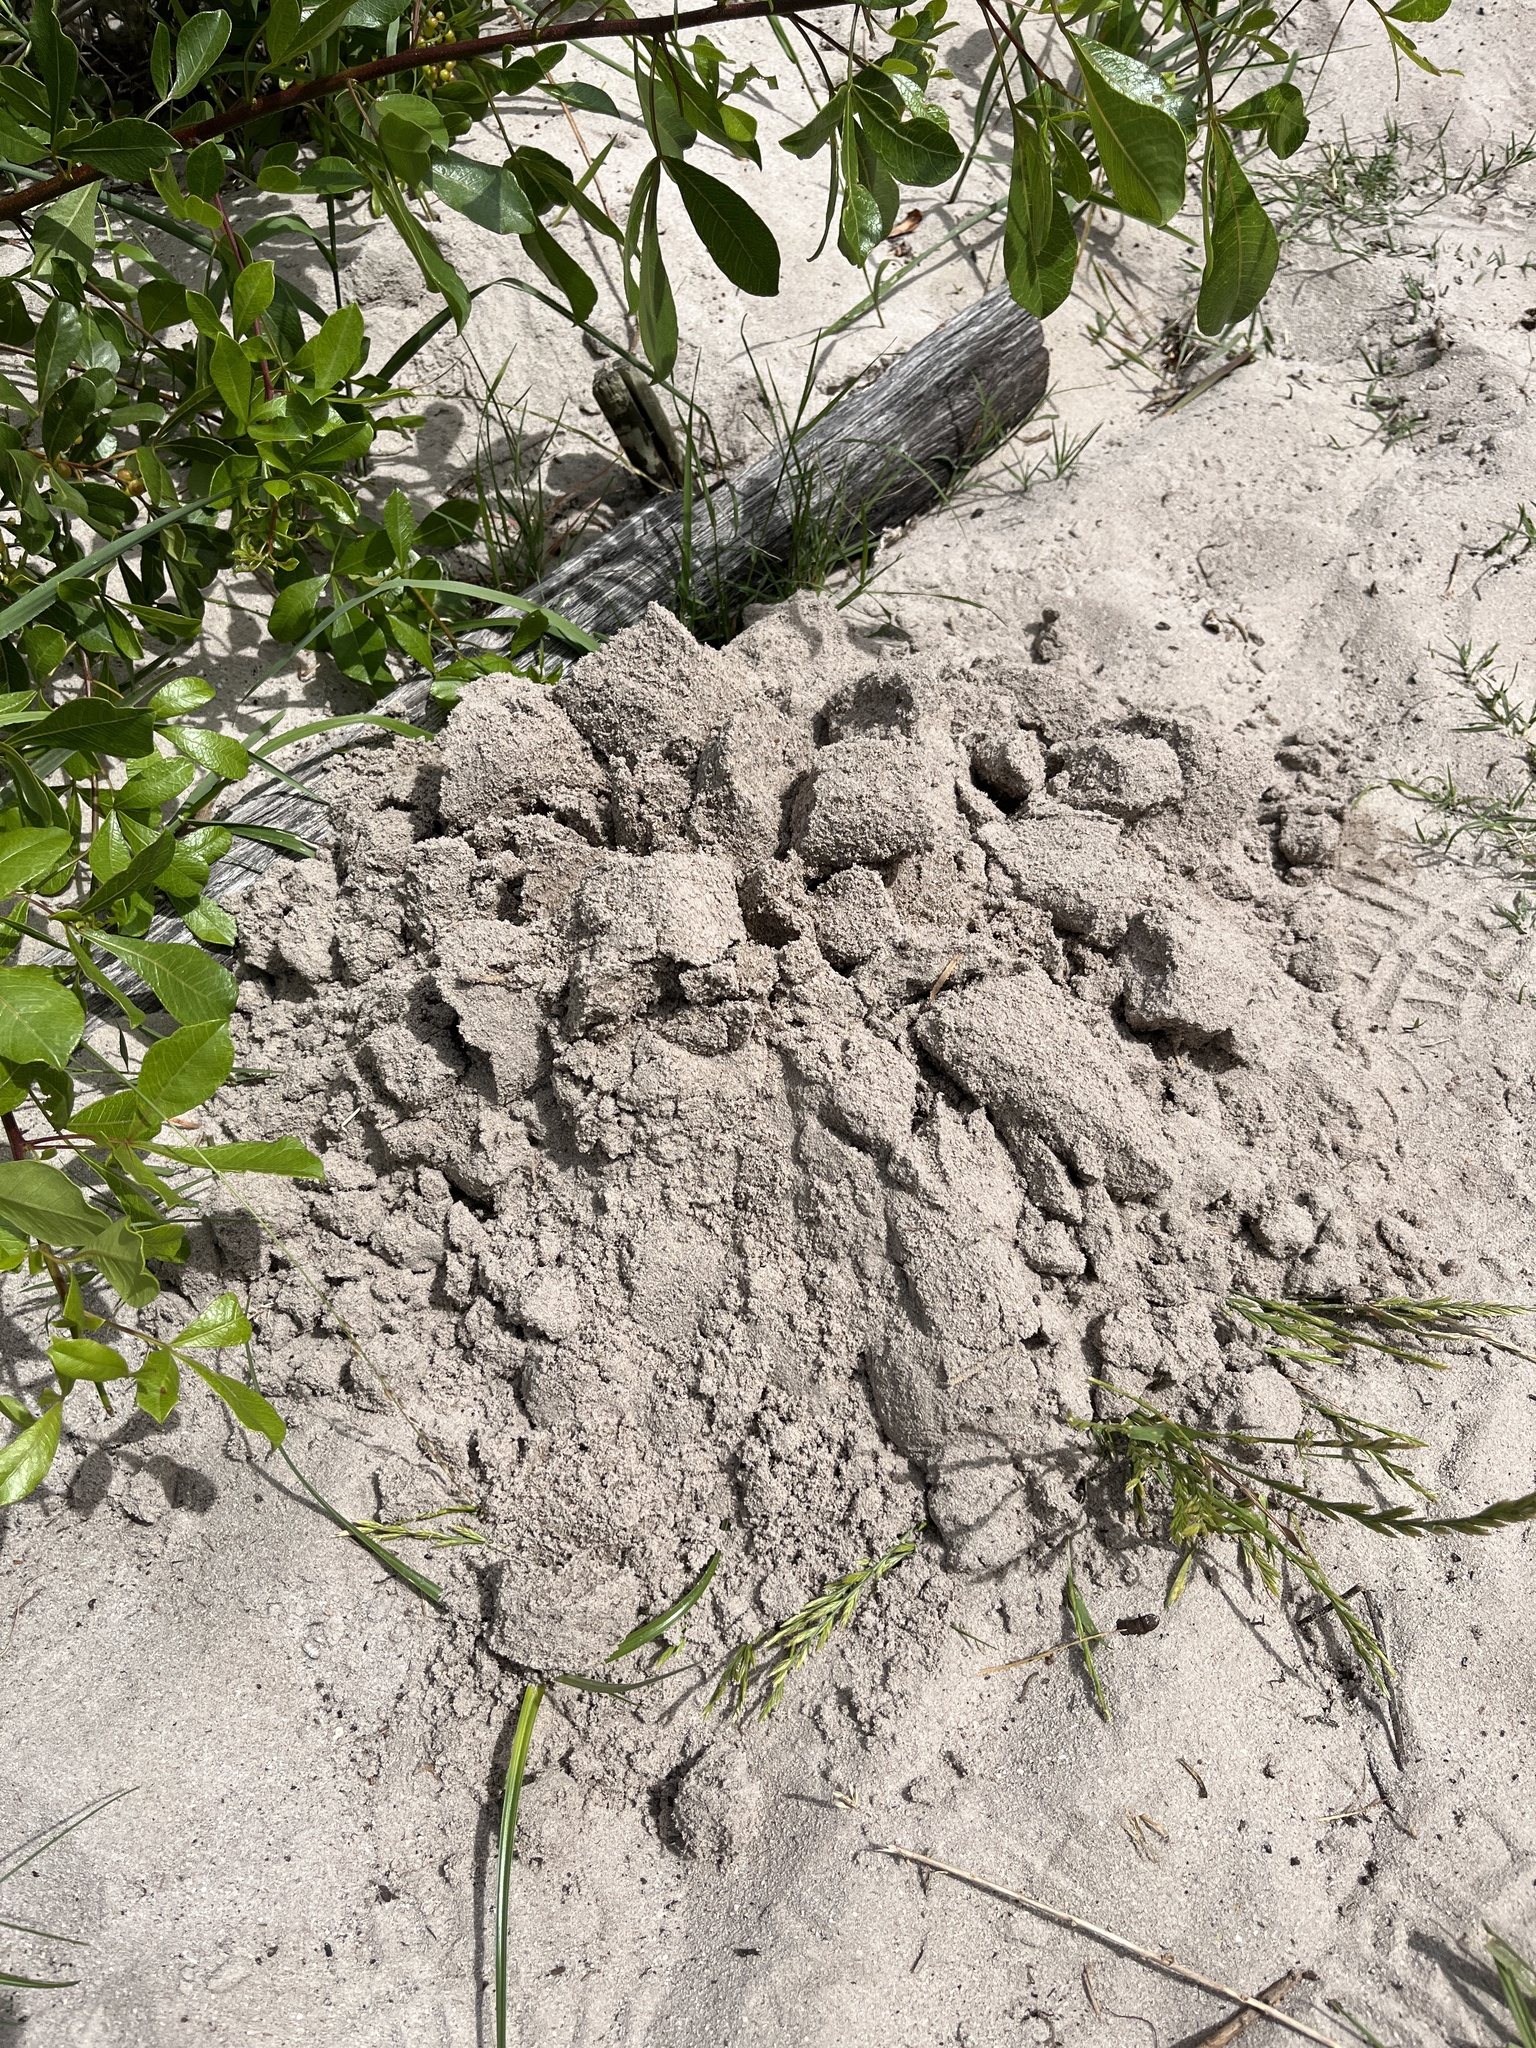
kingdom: Animalia
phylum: Chordata
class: Mammalia
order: Rodentia
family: Bathyergidae
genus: Bathyergus
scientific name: Bathyergus suillus
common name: Cape dune mole rat
